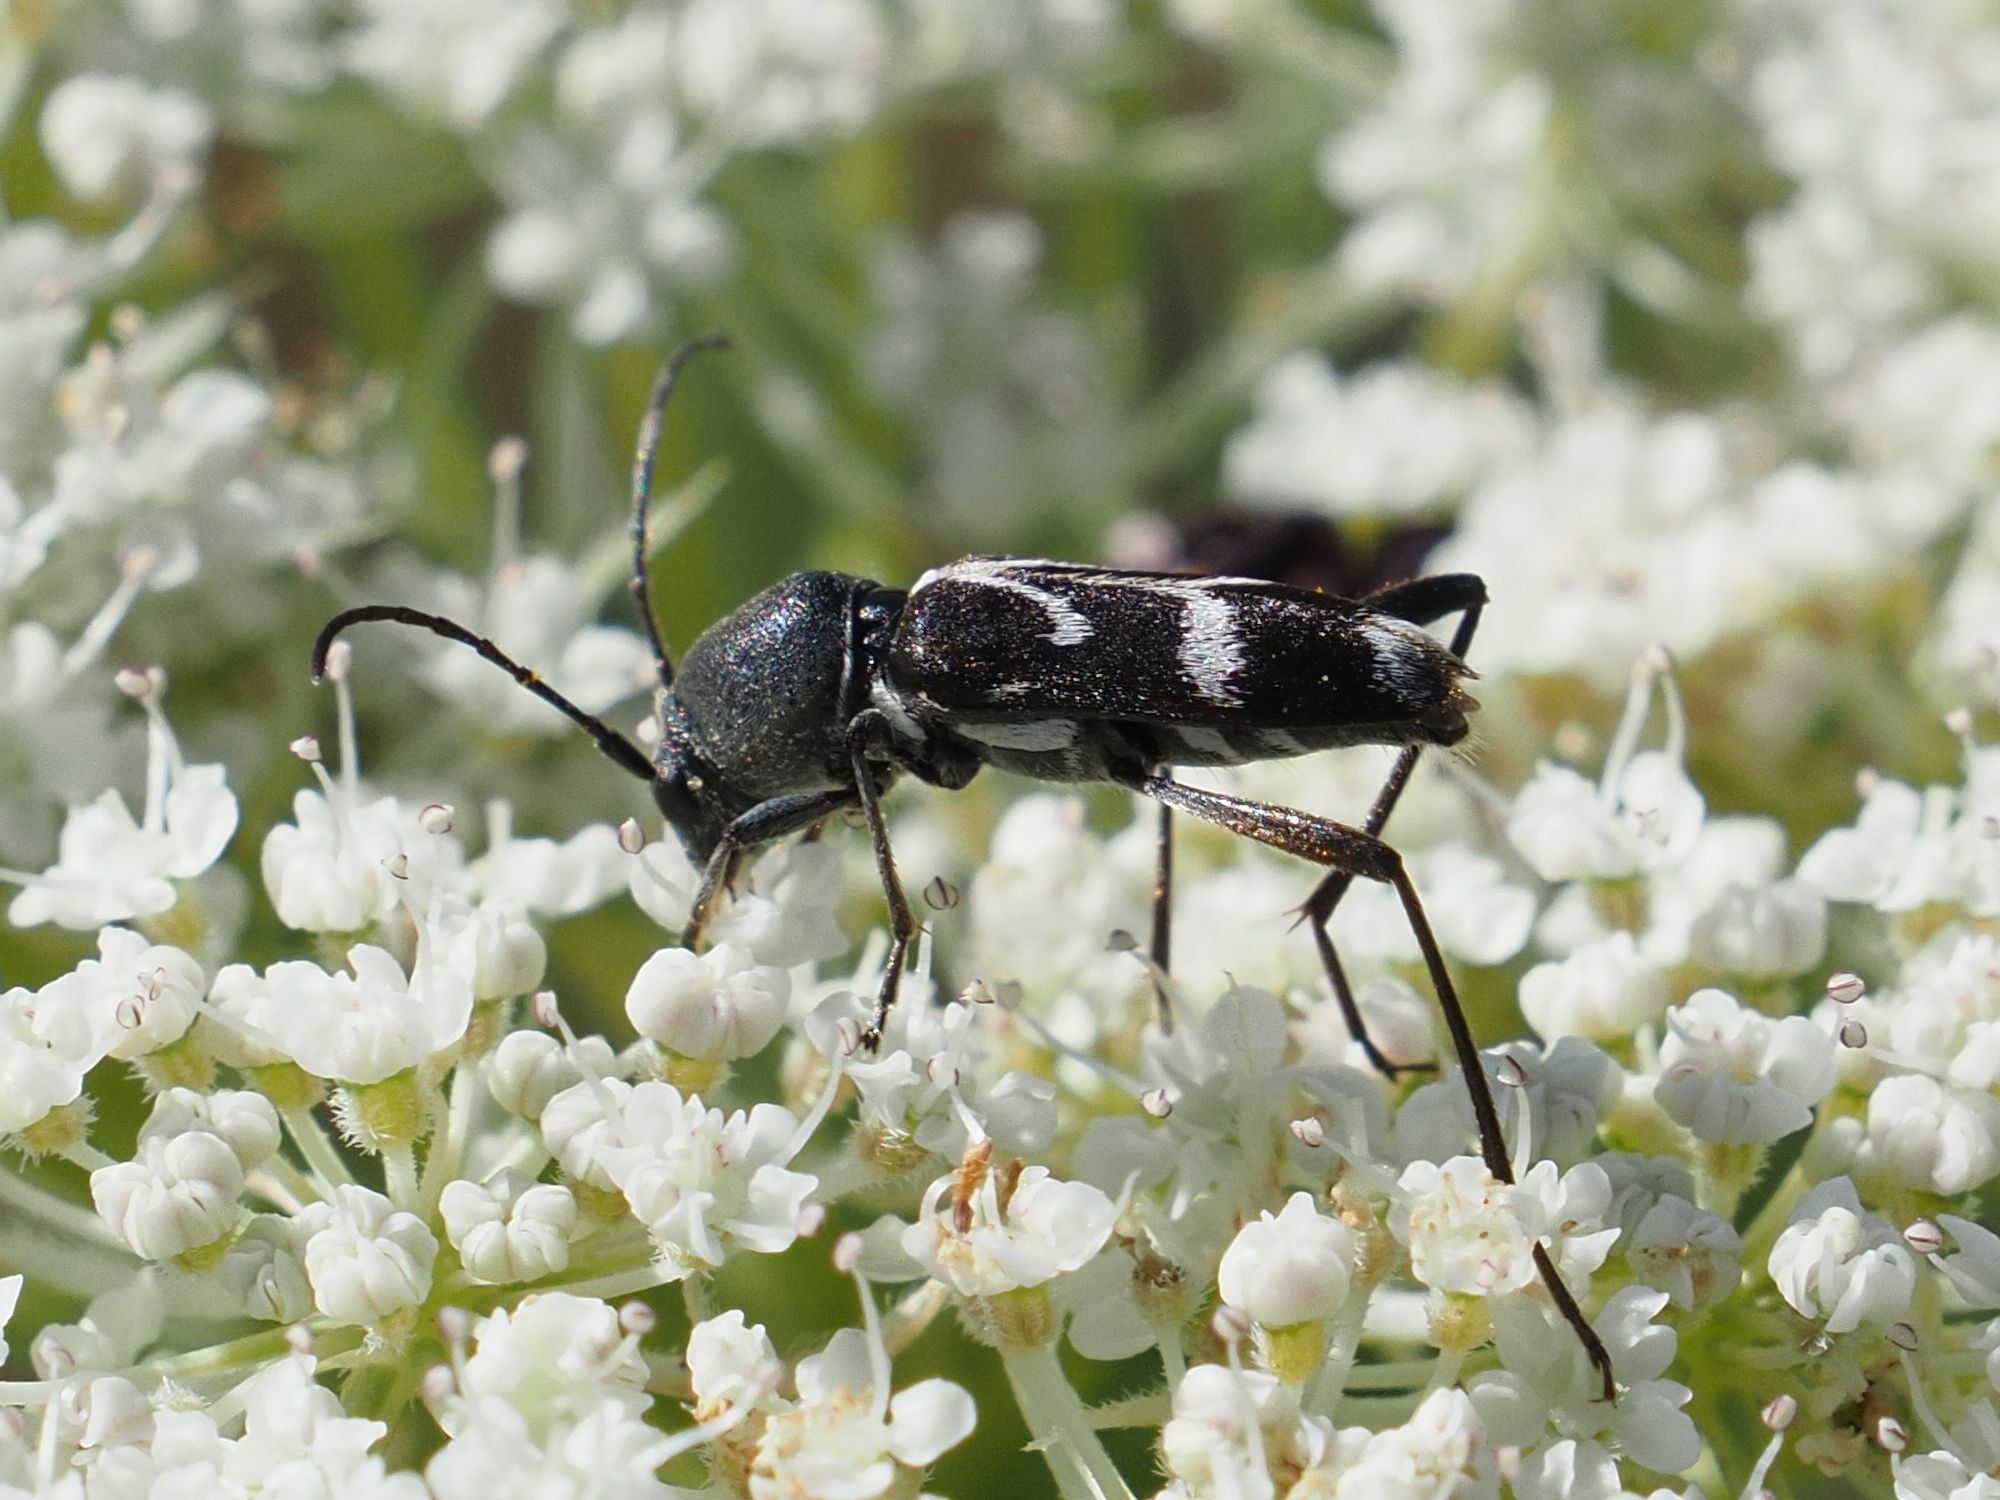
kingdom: Animalia
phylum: Arthropoda
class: Insecta
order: Coleoptera
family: Cerambycidae
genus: Chlorophorus
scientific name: Chlorophorus sartor
